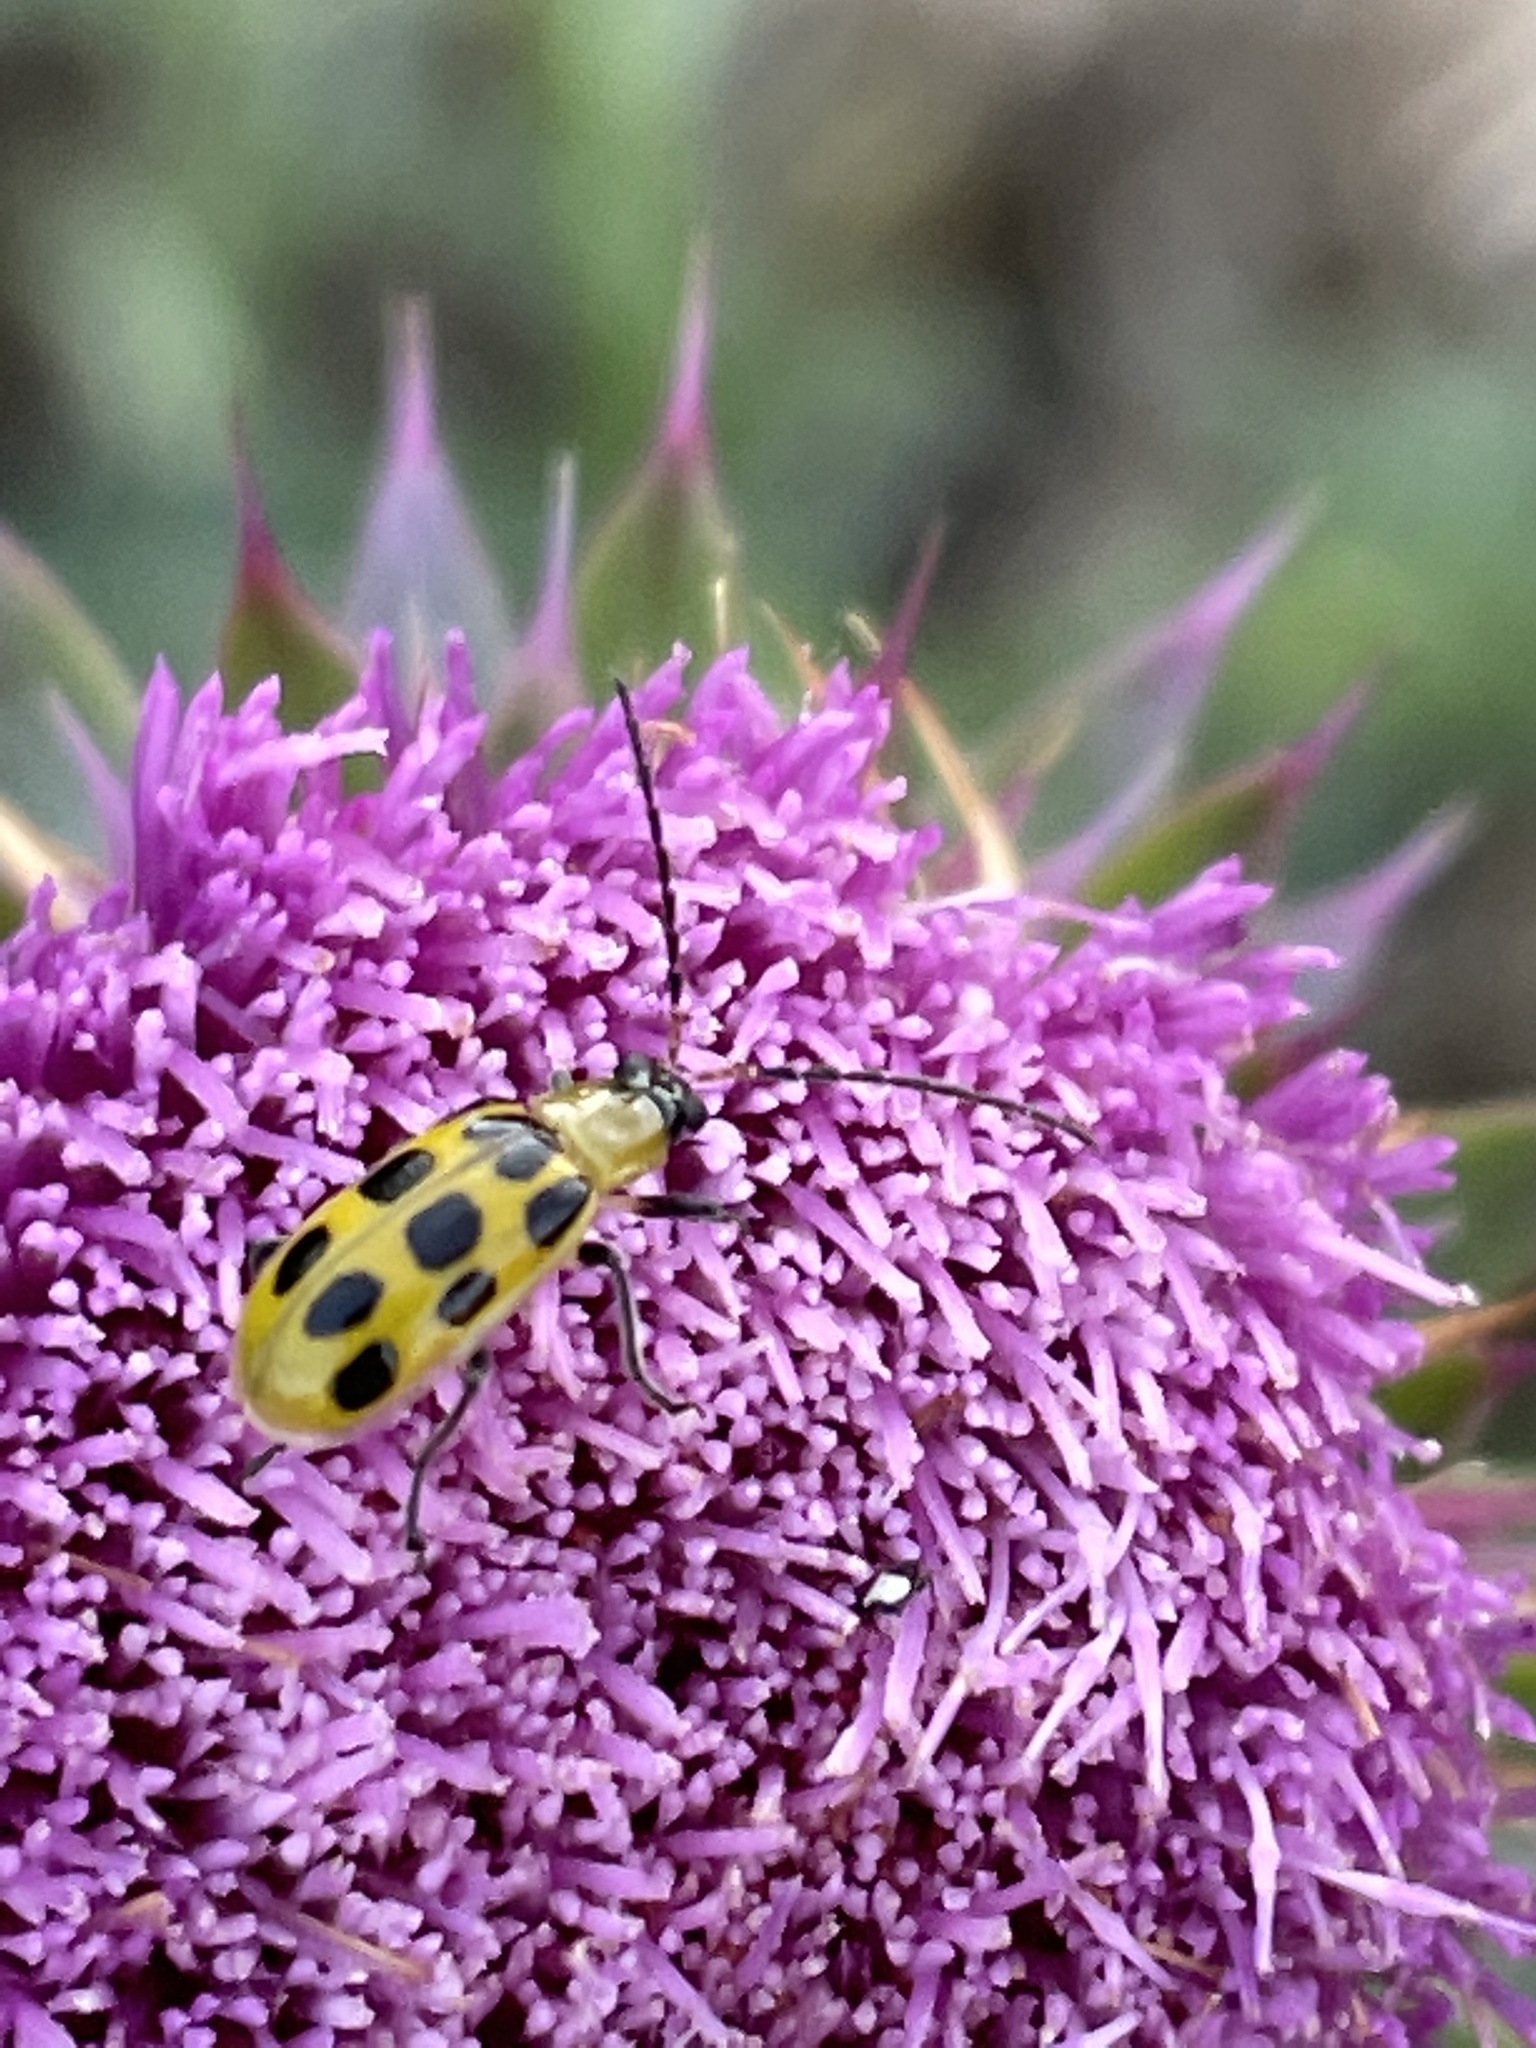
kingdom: Animalia
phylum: Arthropoda
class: Insecta
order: Coleoptera
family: Chrysomelidae
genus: Diabrotica
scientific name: Diabrotica undecimpunctata
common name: Spotted cucumber beetle
